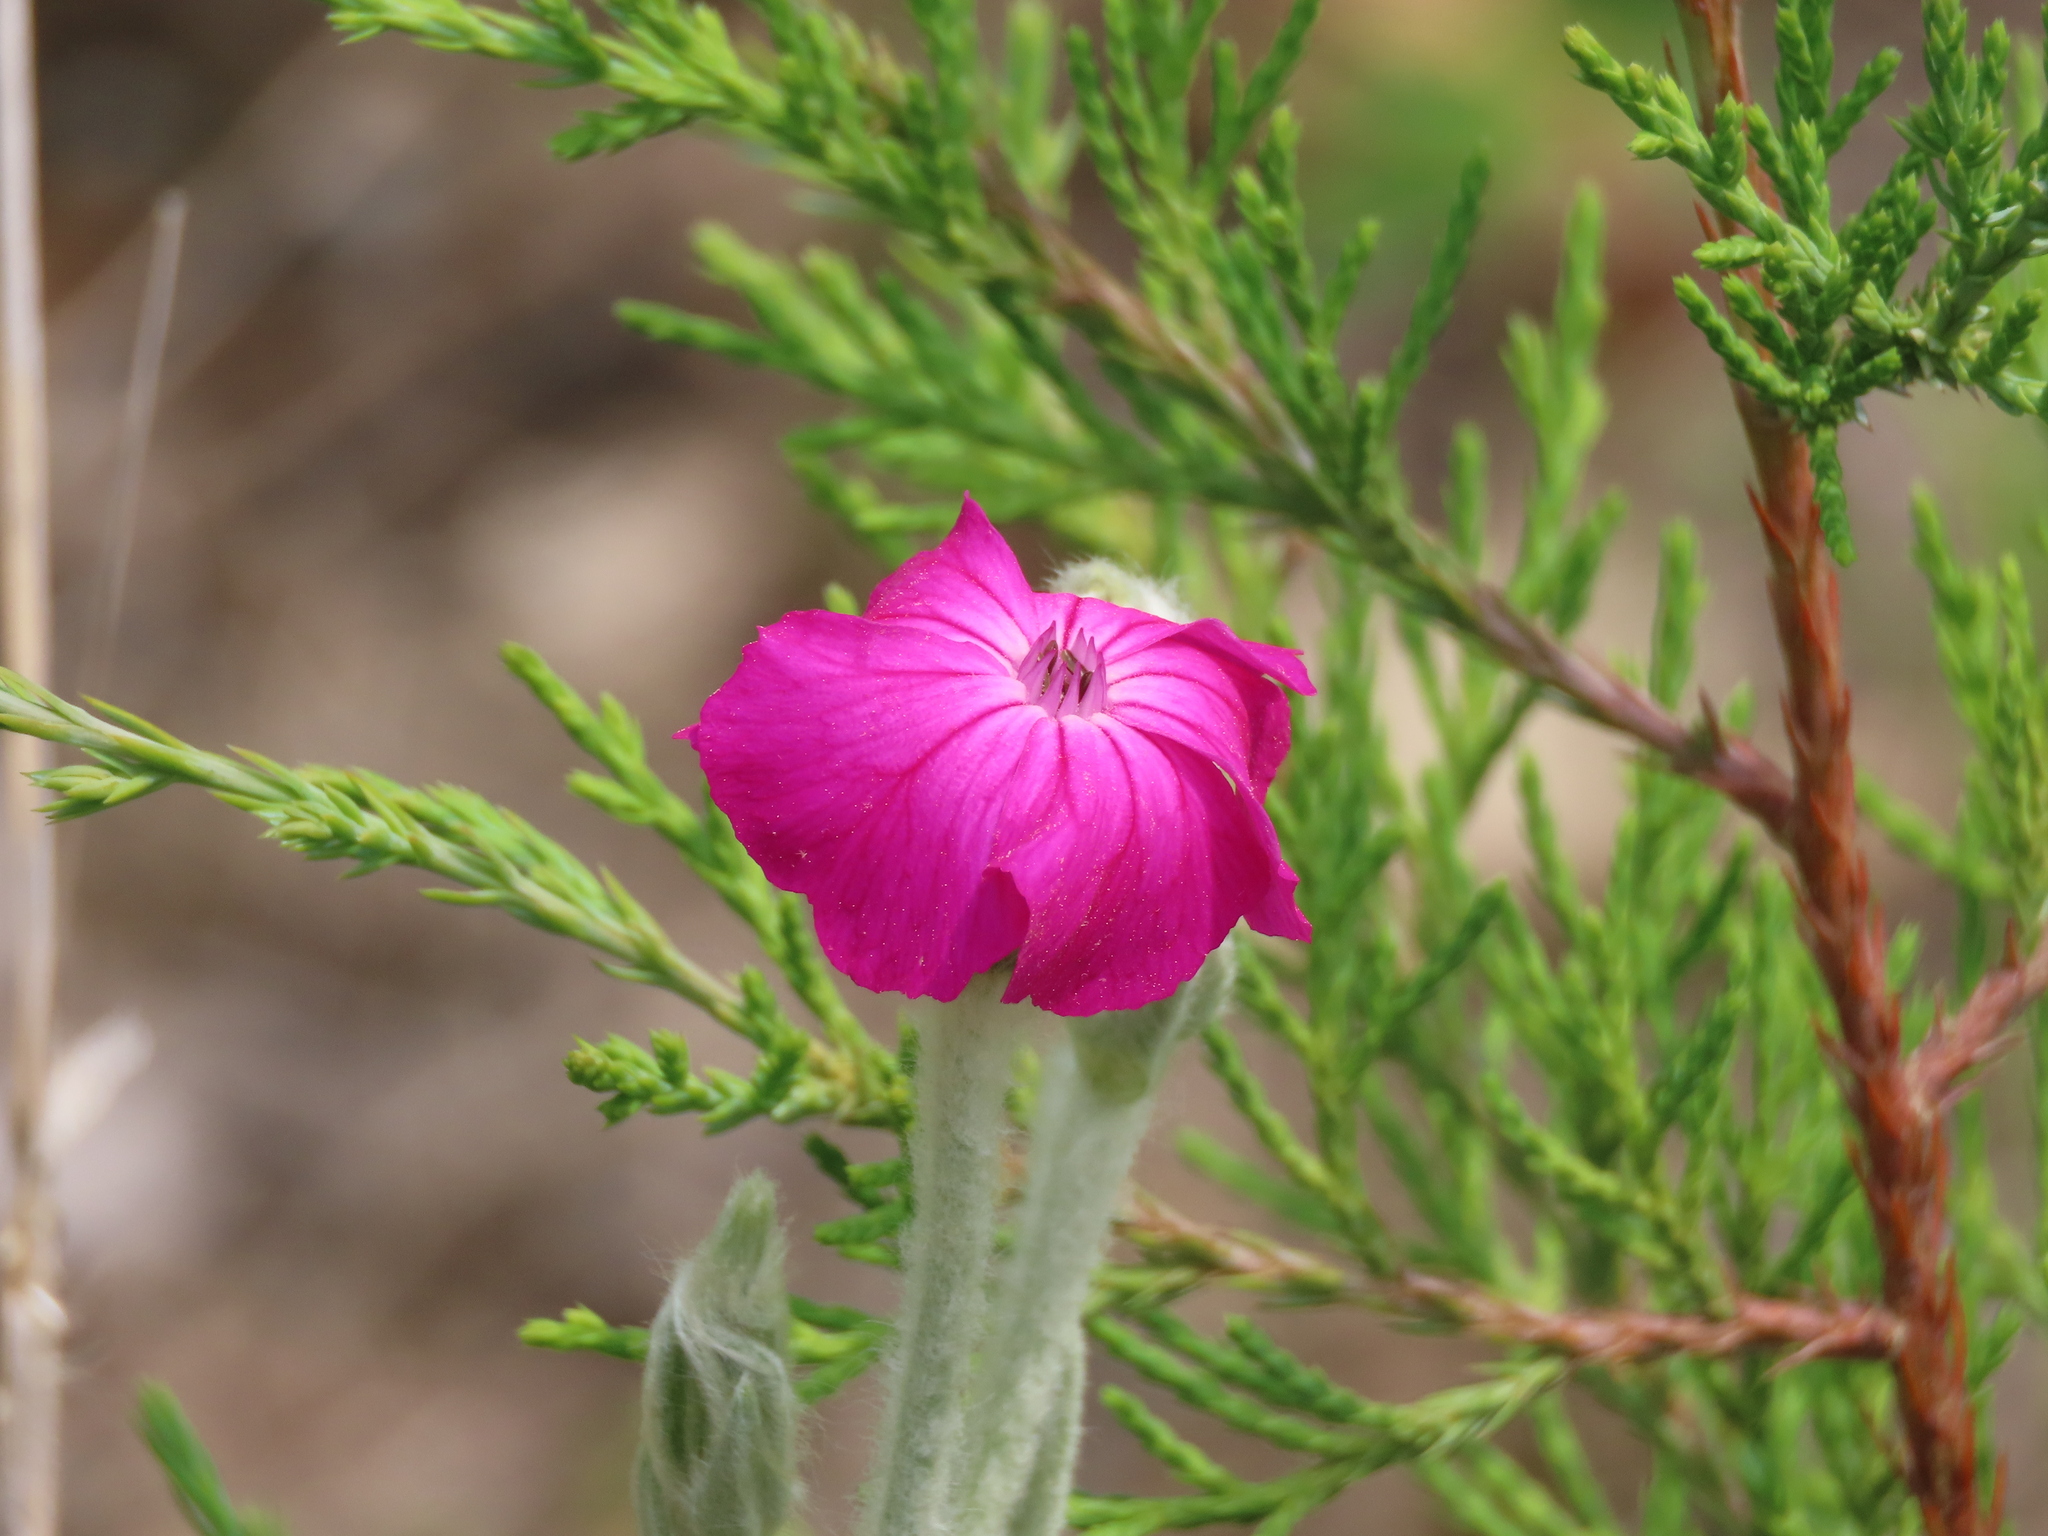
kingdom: Plantae
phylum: Tracheophyta
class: Magnoliopsida
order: Caryophyllales
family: Caryophyllaceae
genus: Silene
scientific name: Silene coronaria
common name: Rose campion
